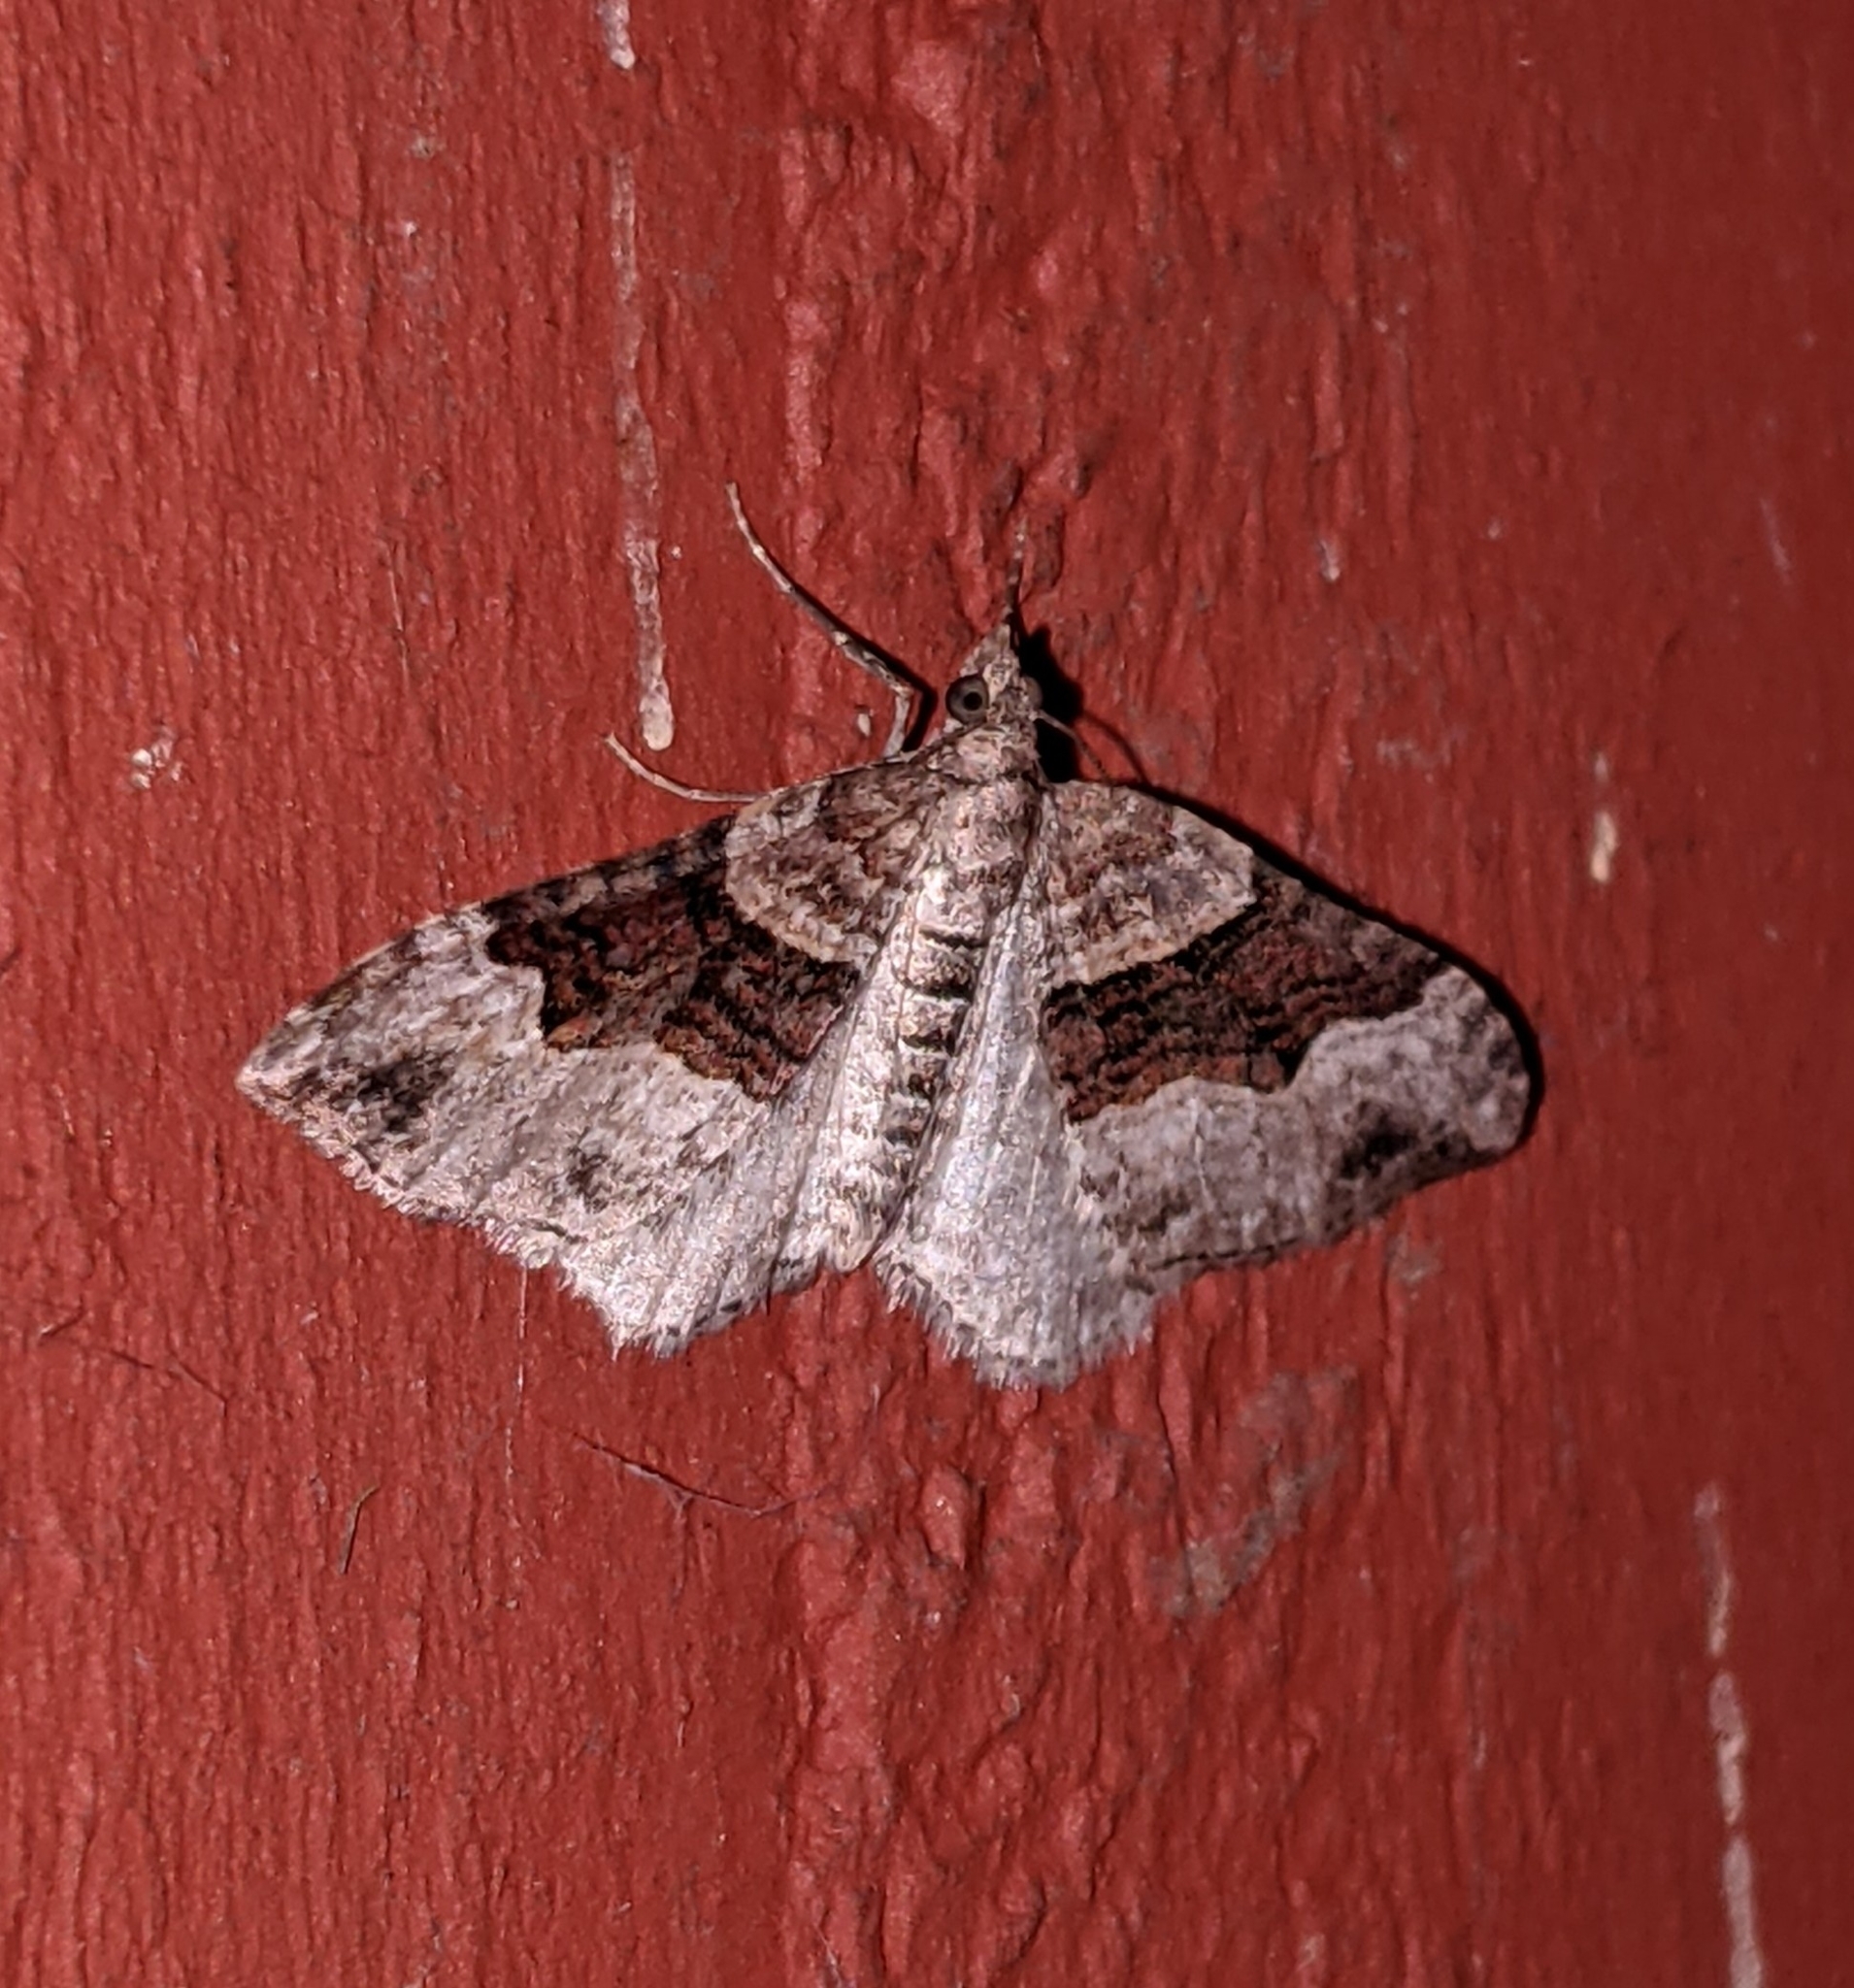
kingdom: Animalia
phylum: Arthropoda
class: Insecta
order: Lepidoptera
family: Geometridae
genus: Xanthorhoe
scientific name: Xanthorhoe defensaria
